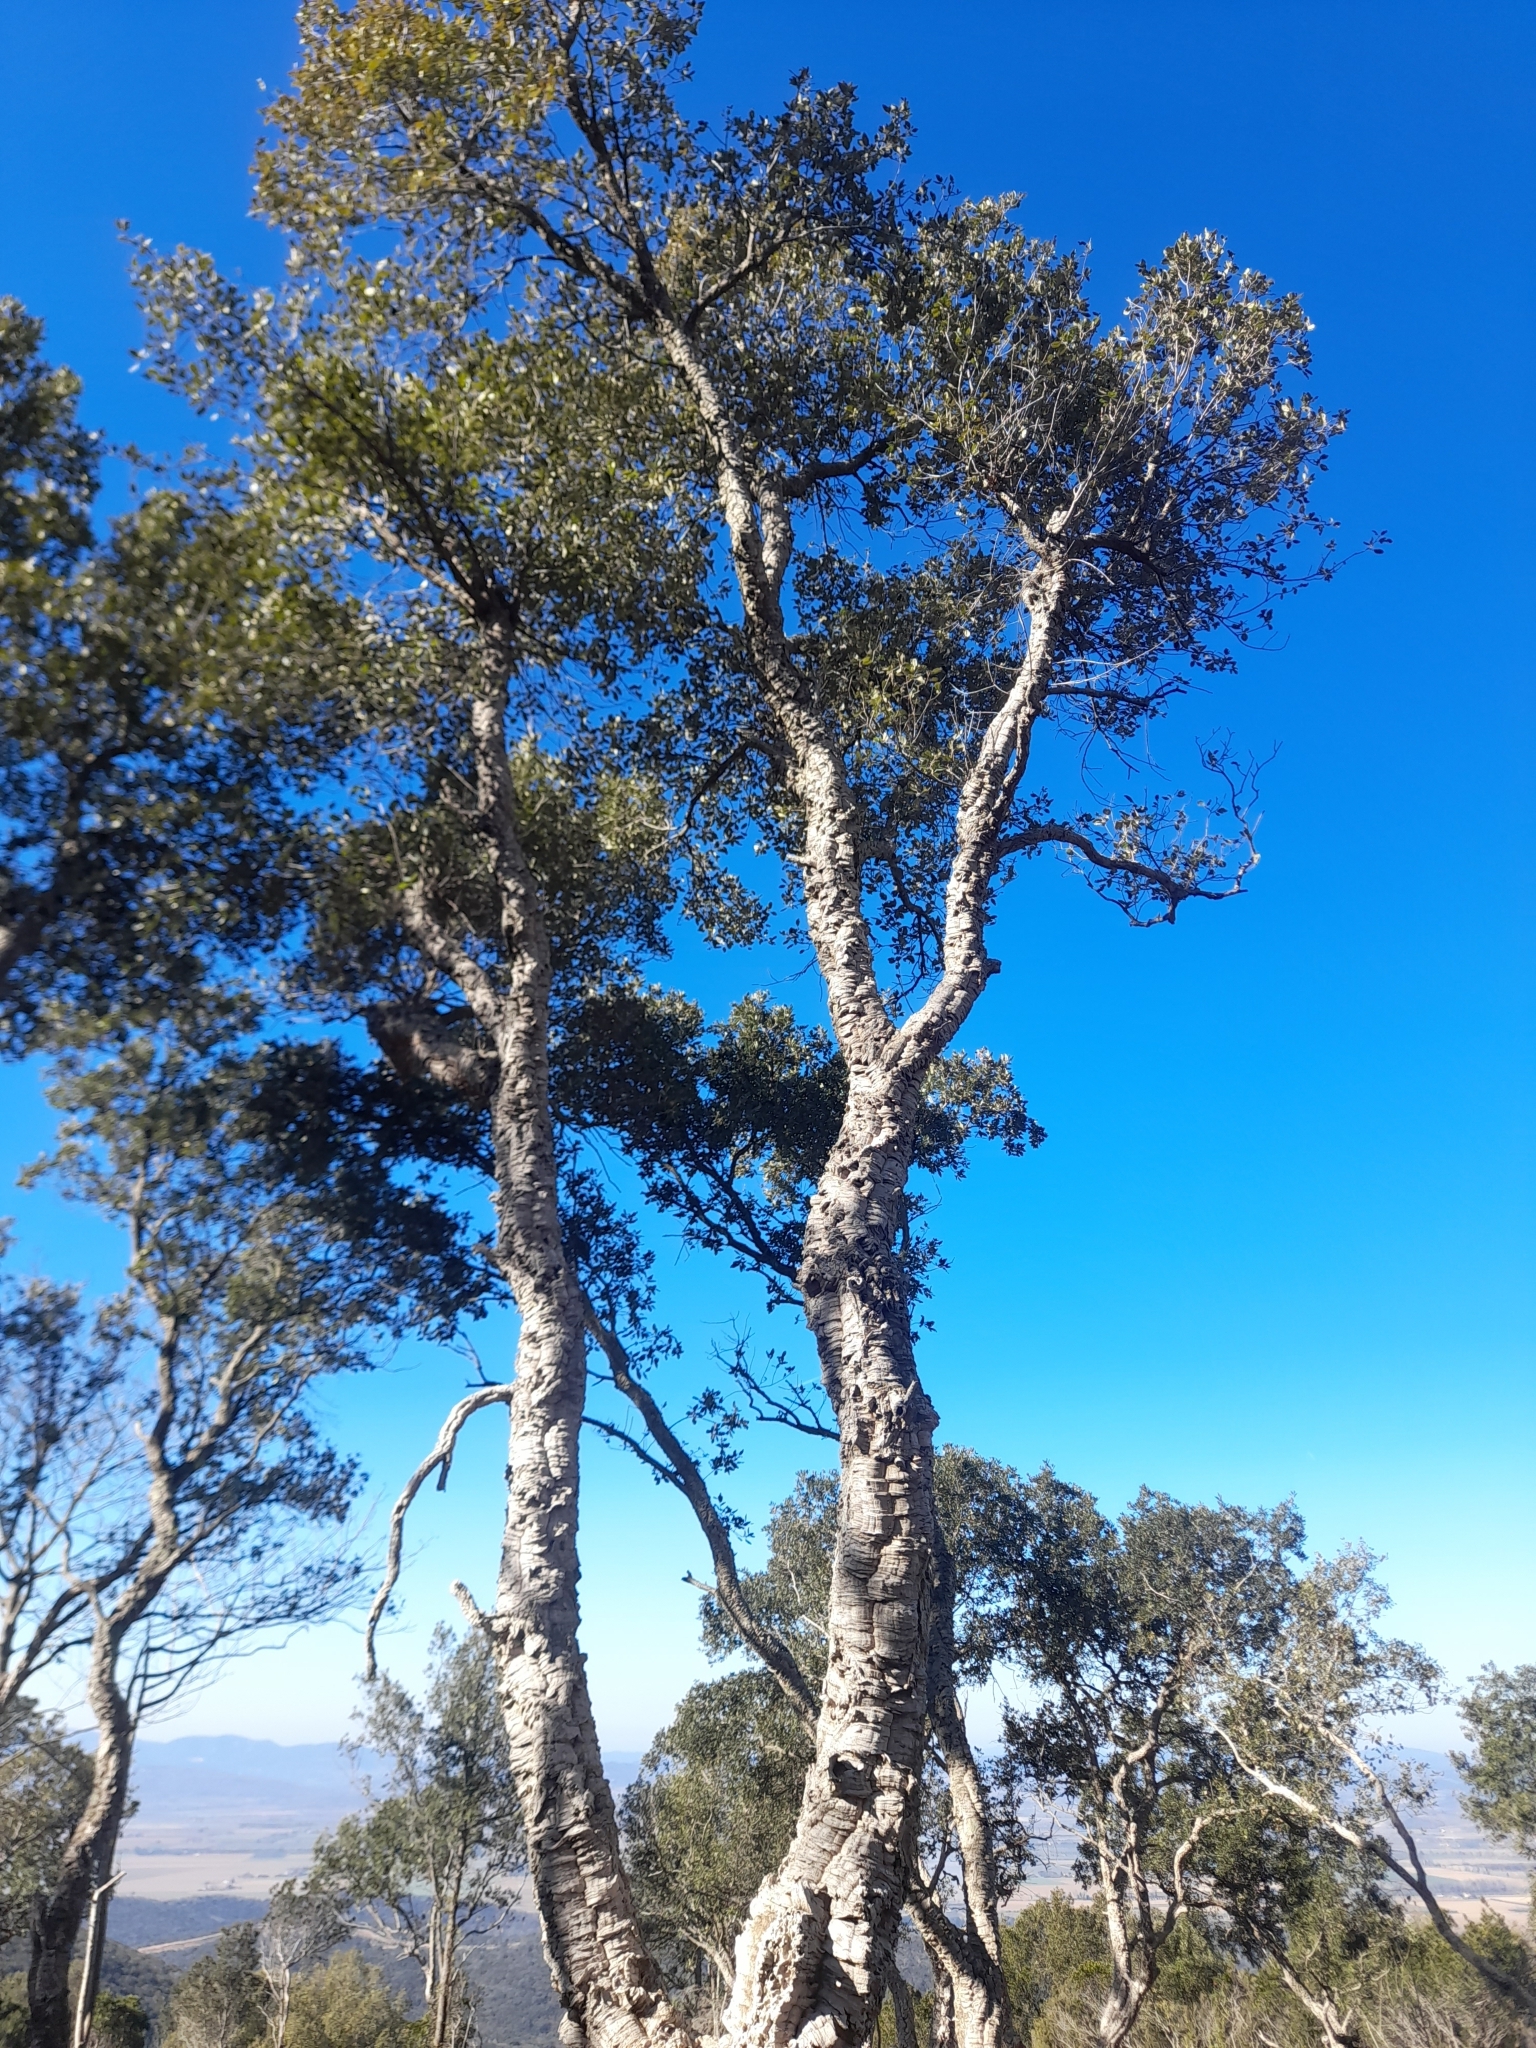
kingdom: Plantae
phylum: Tracheophyta
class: Magnoliopsida
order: Fagales
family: Fagaceae
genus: Quercus
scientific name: Quercus suber
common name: Cork oak
